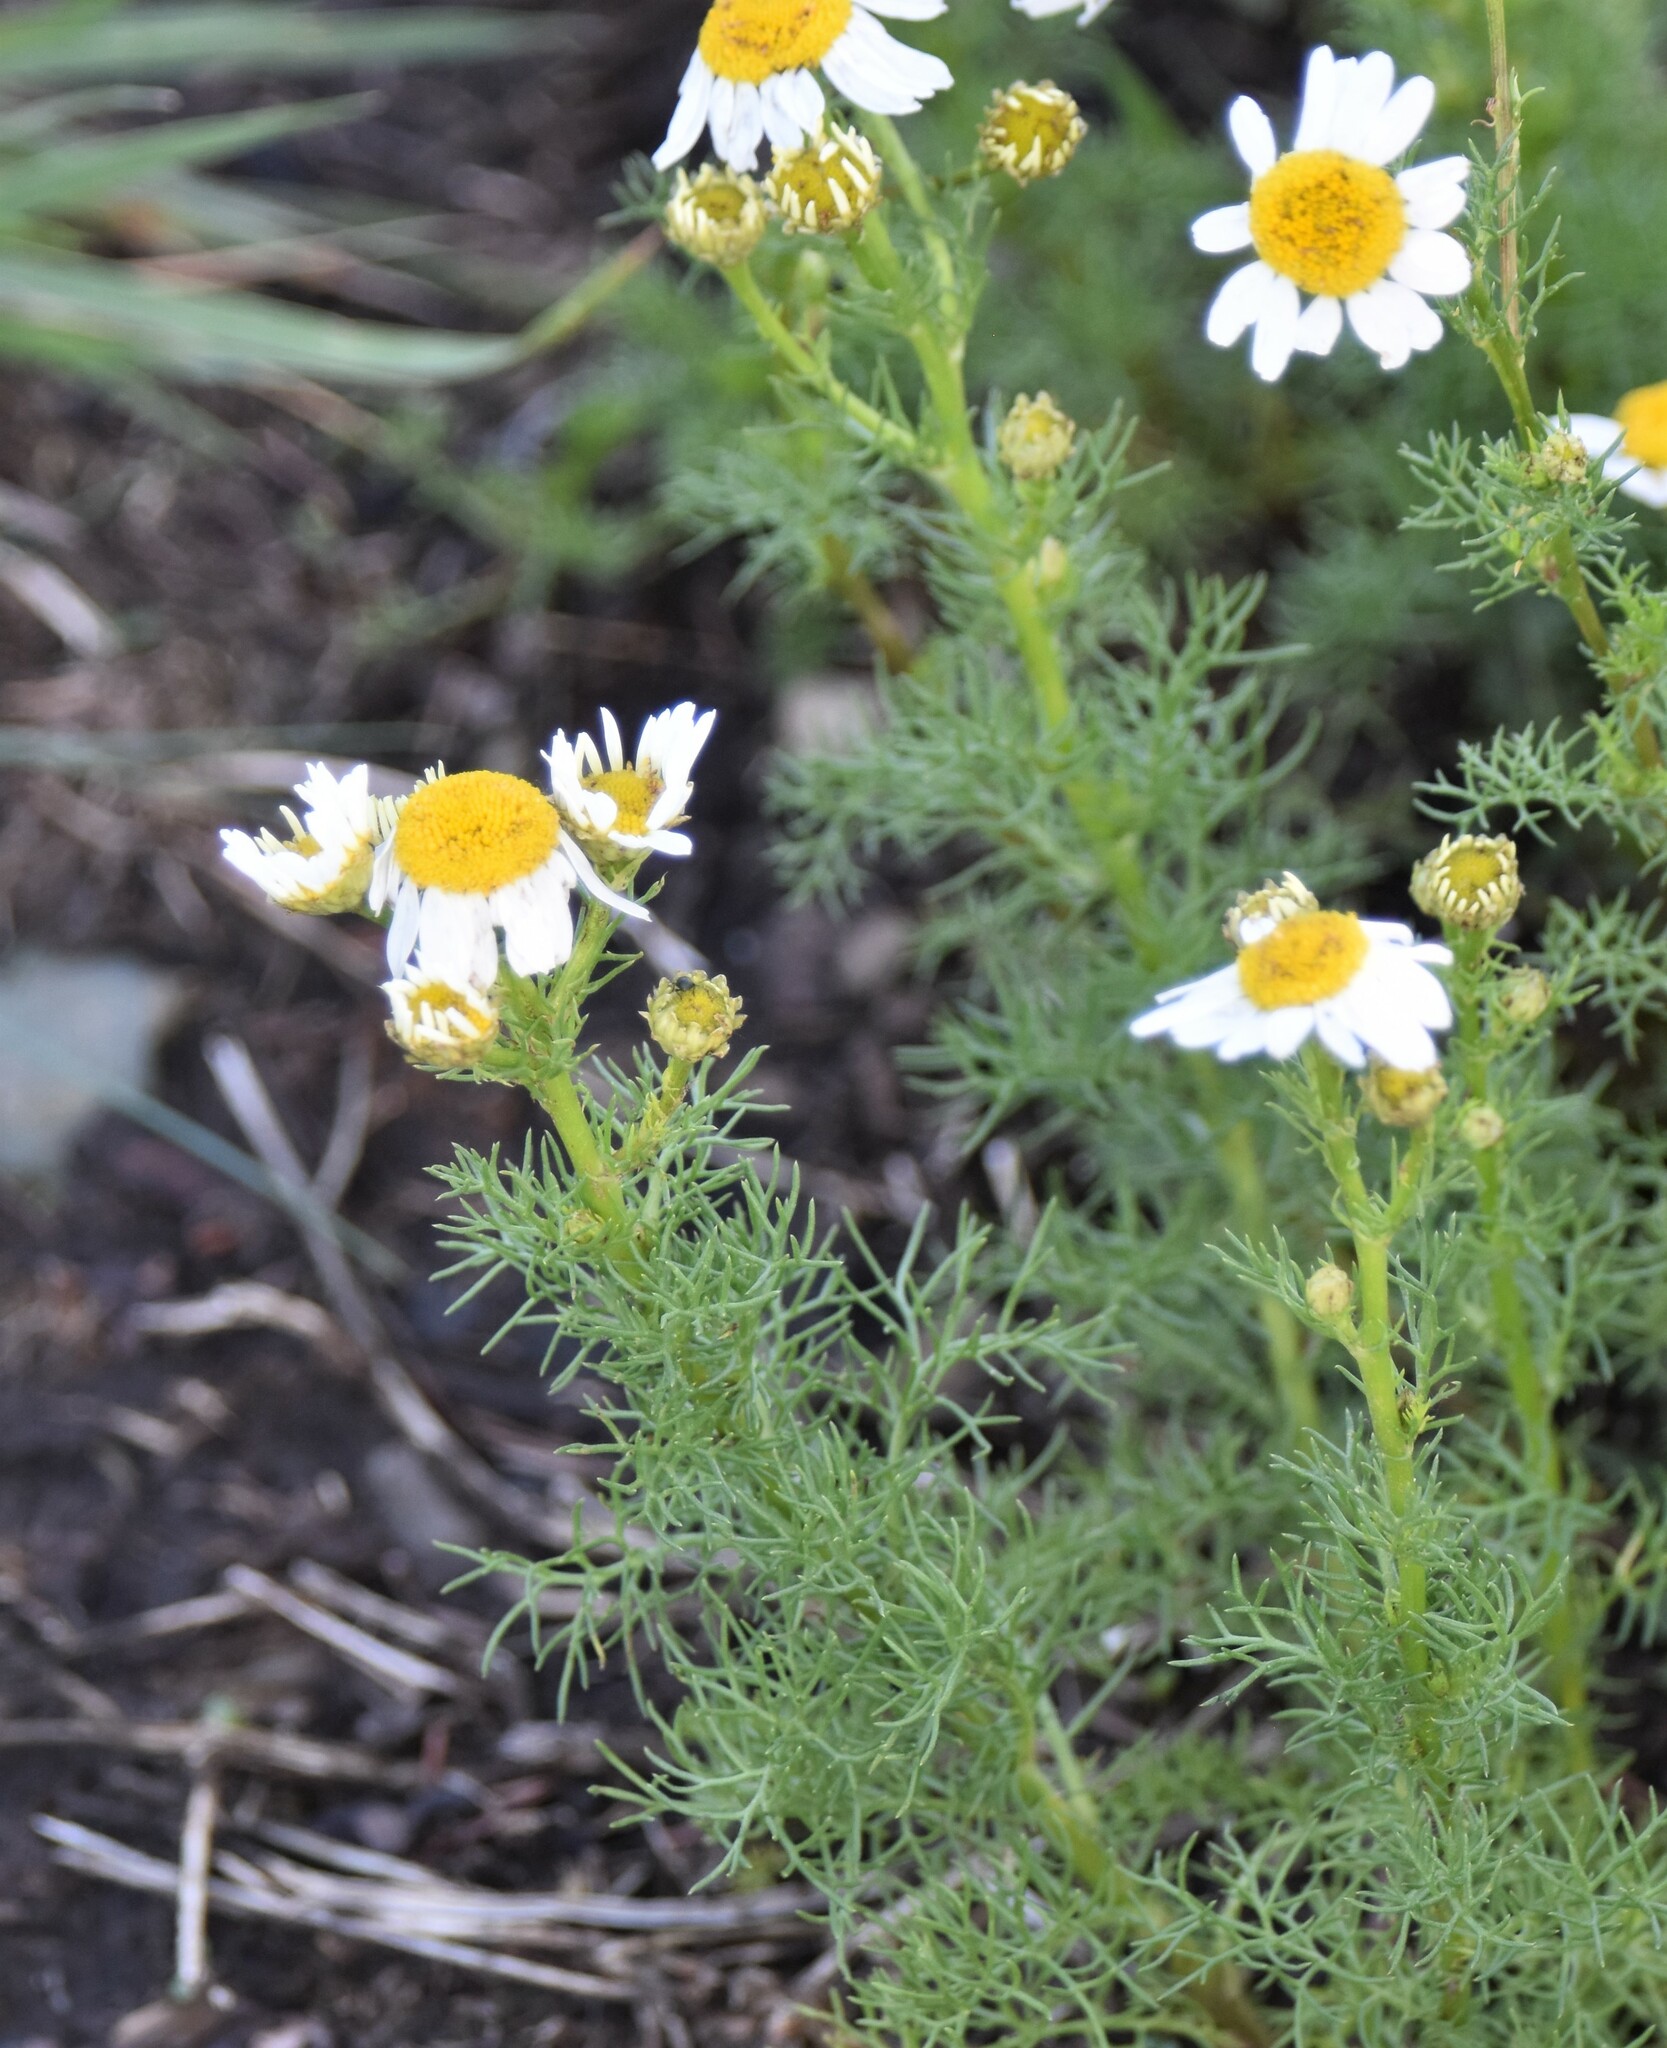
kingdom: Plantae
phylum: Tracheophyta
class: Magnoliopsida
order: Asterales
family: Asteraceae
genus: Tripleurospermum
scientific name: Tripleurospermum inodorum
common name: Scentless mayweed
